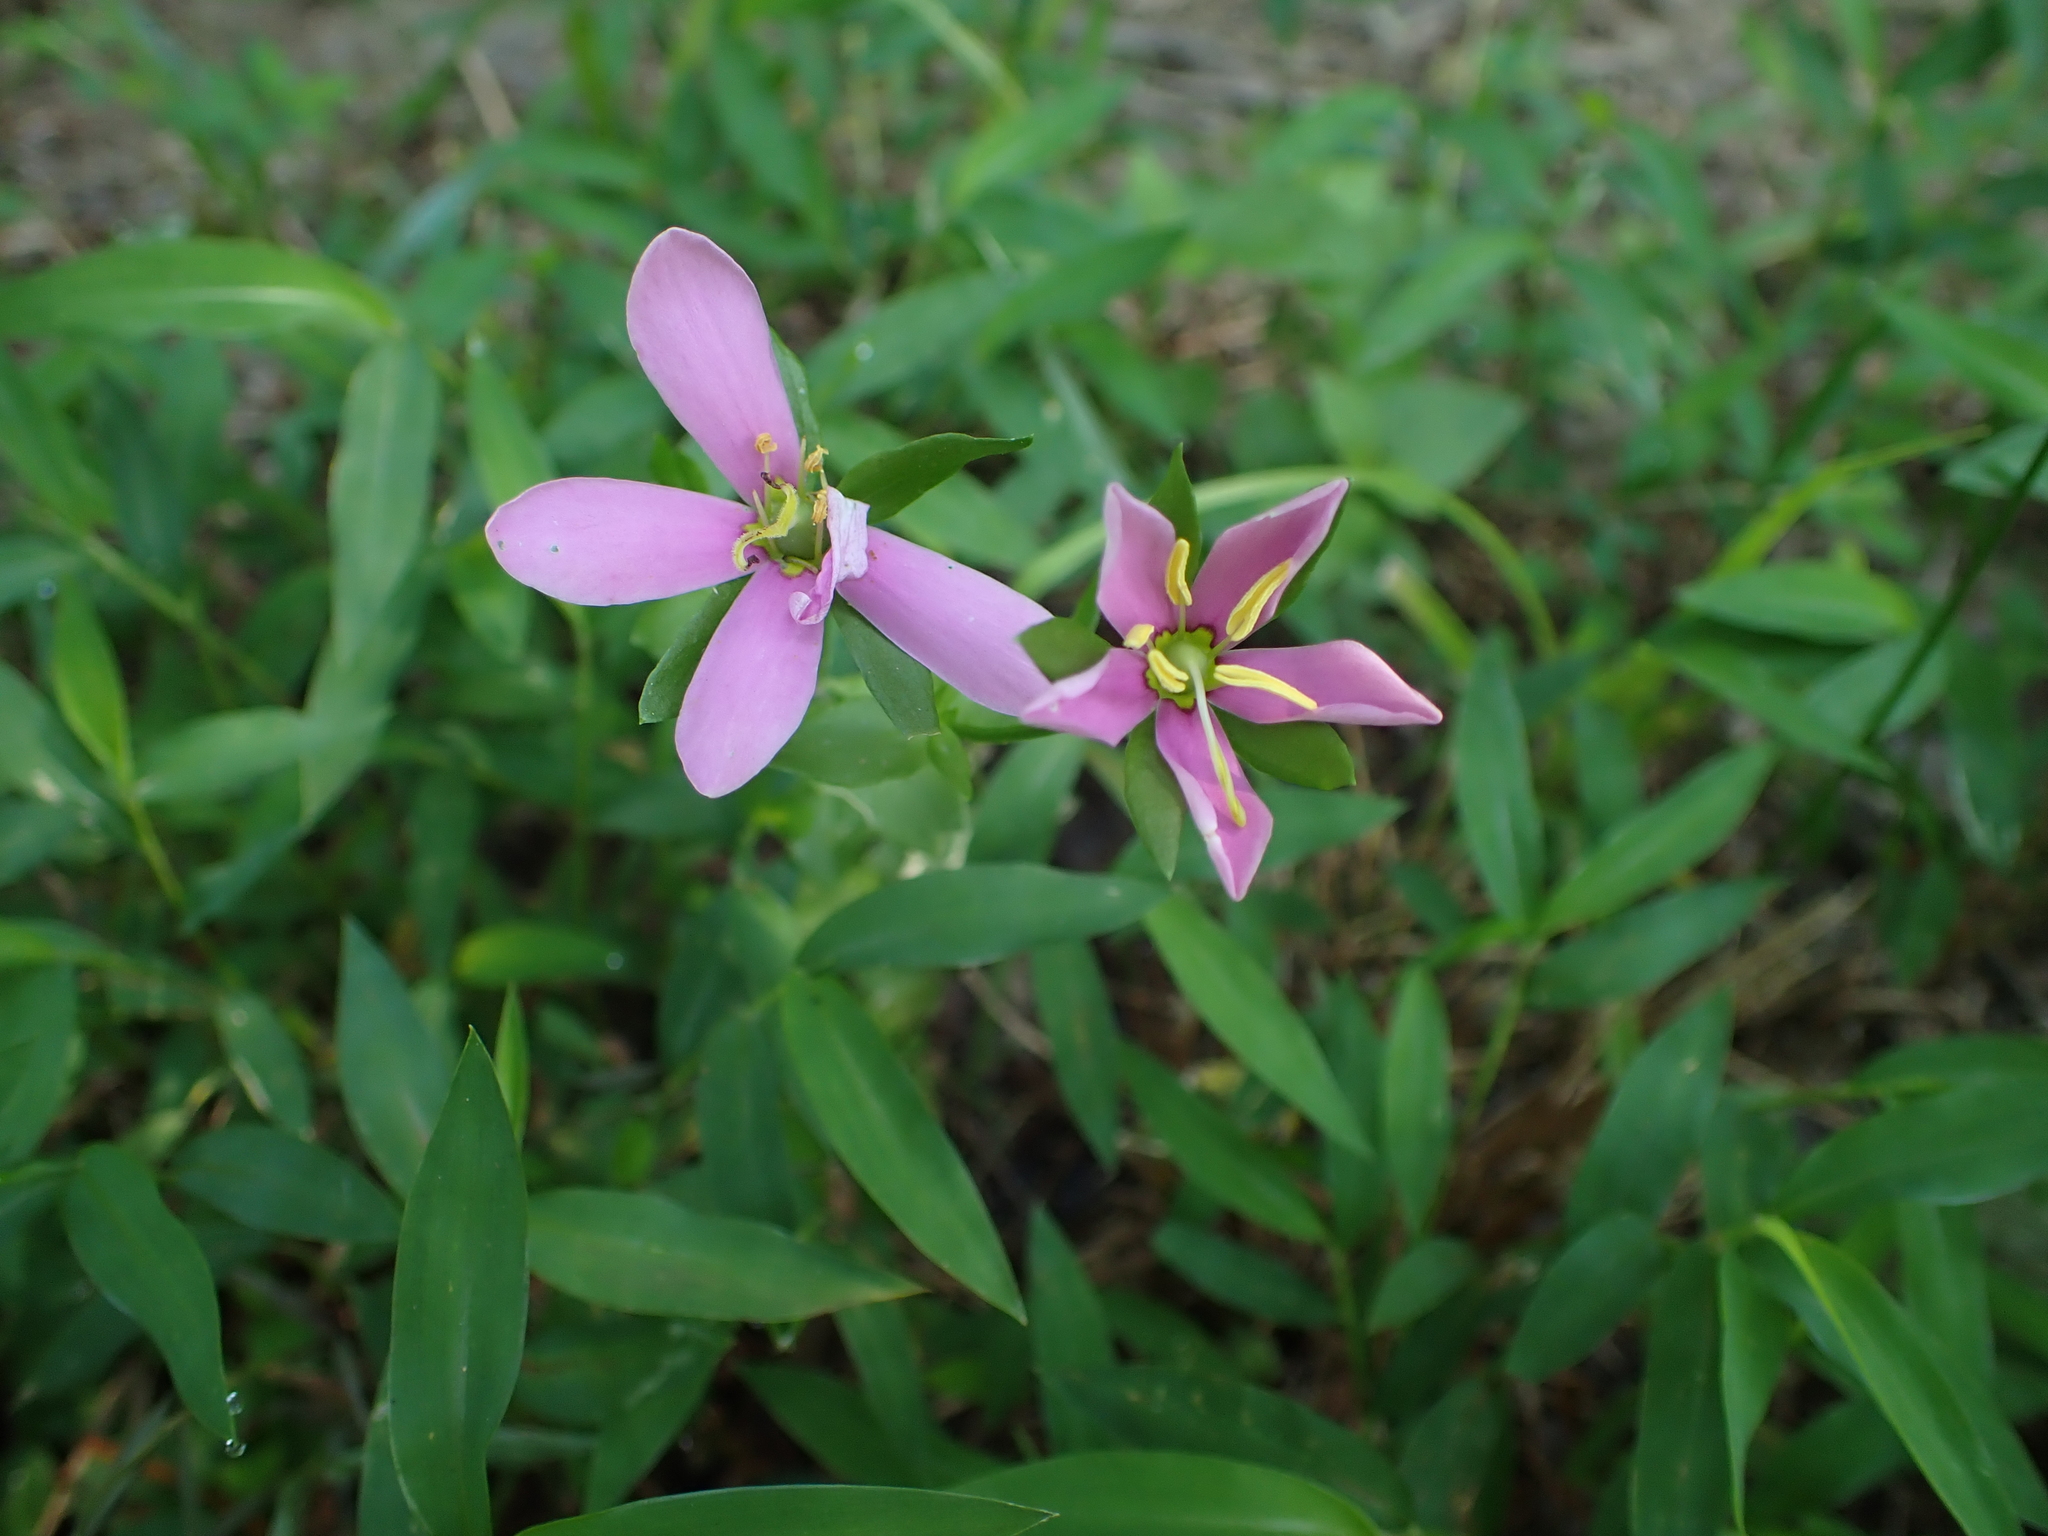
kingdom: Plantae
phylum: Tracheophyta
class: Magnoliopsida
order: Gentianales
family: Gentianaceae
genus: Sabatia
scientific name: Sabatia angularis
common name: Rose-pink
